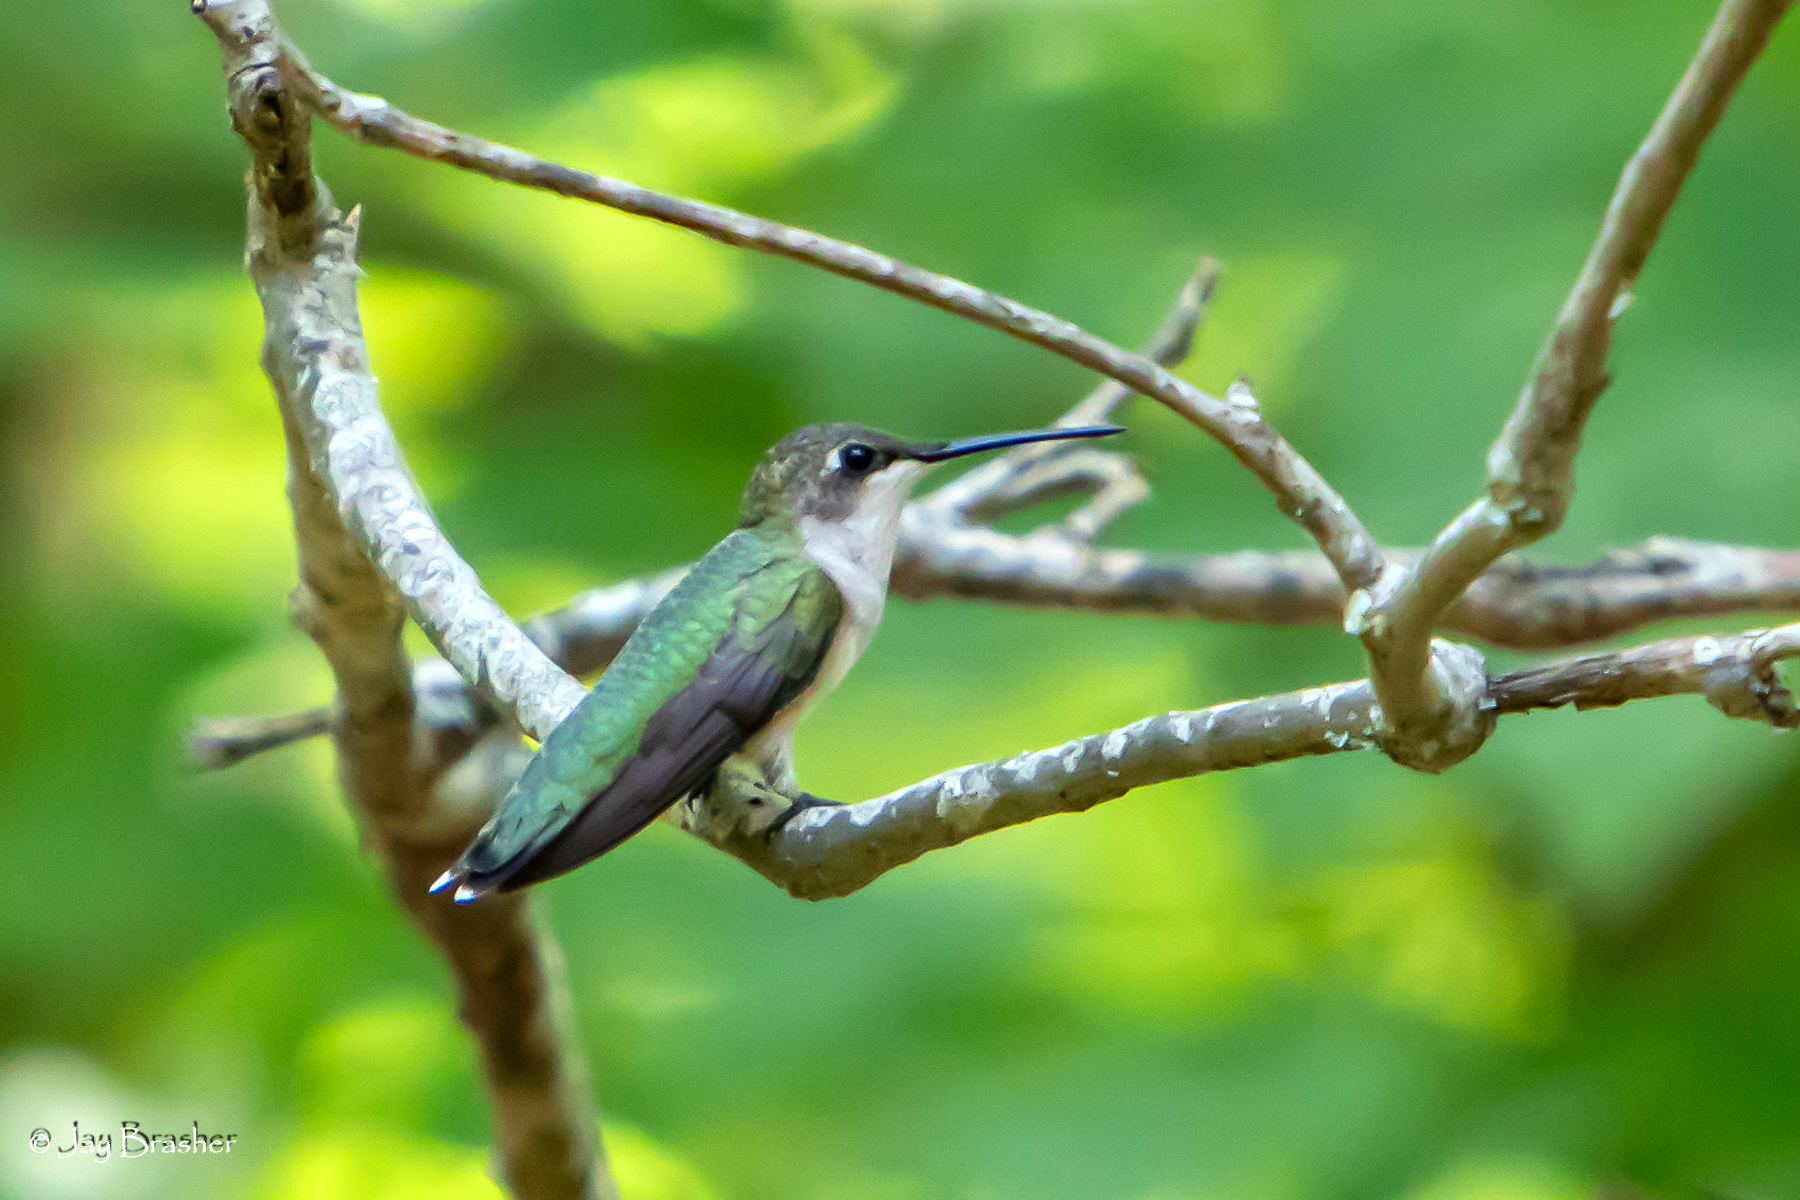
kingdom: Animalia
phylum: Chordata
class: Aves
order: Apodiformes
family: Trochilidae
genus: Archilochus
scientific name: Archilochus colubris
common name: Ruby-throated hummingbird
